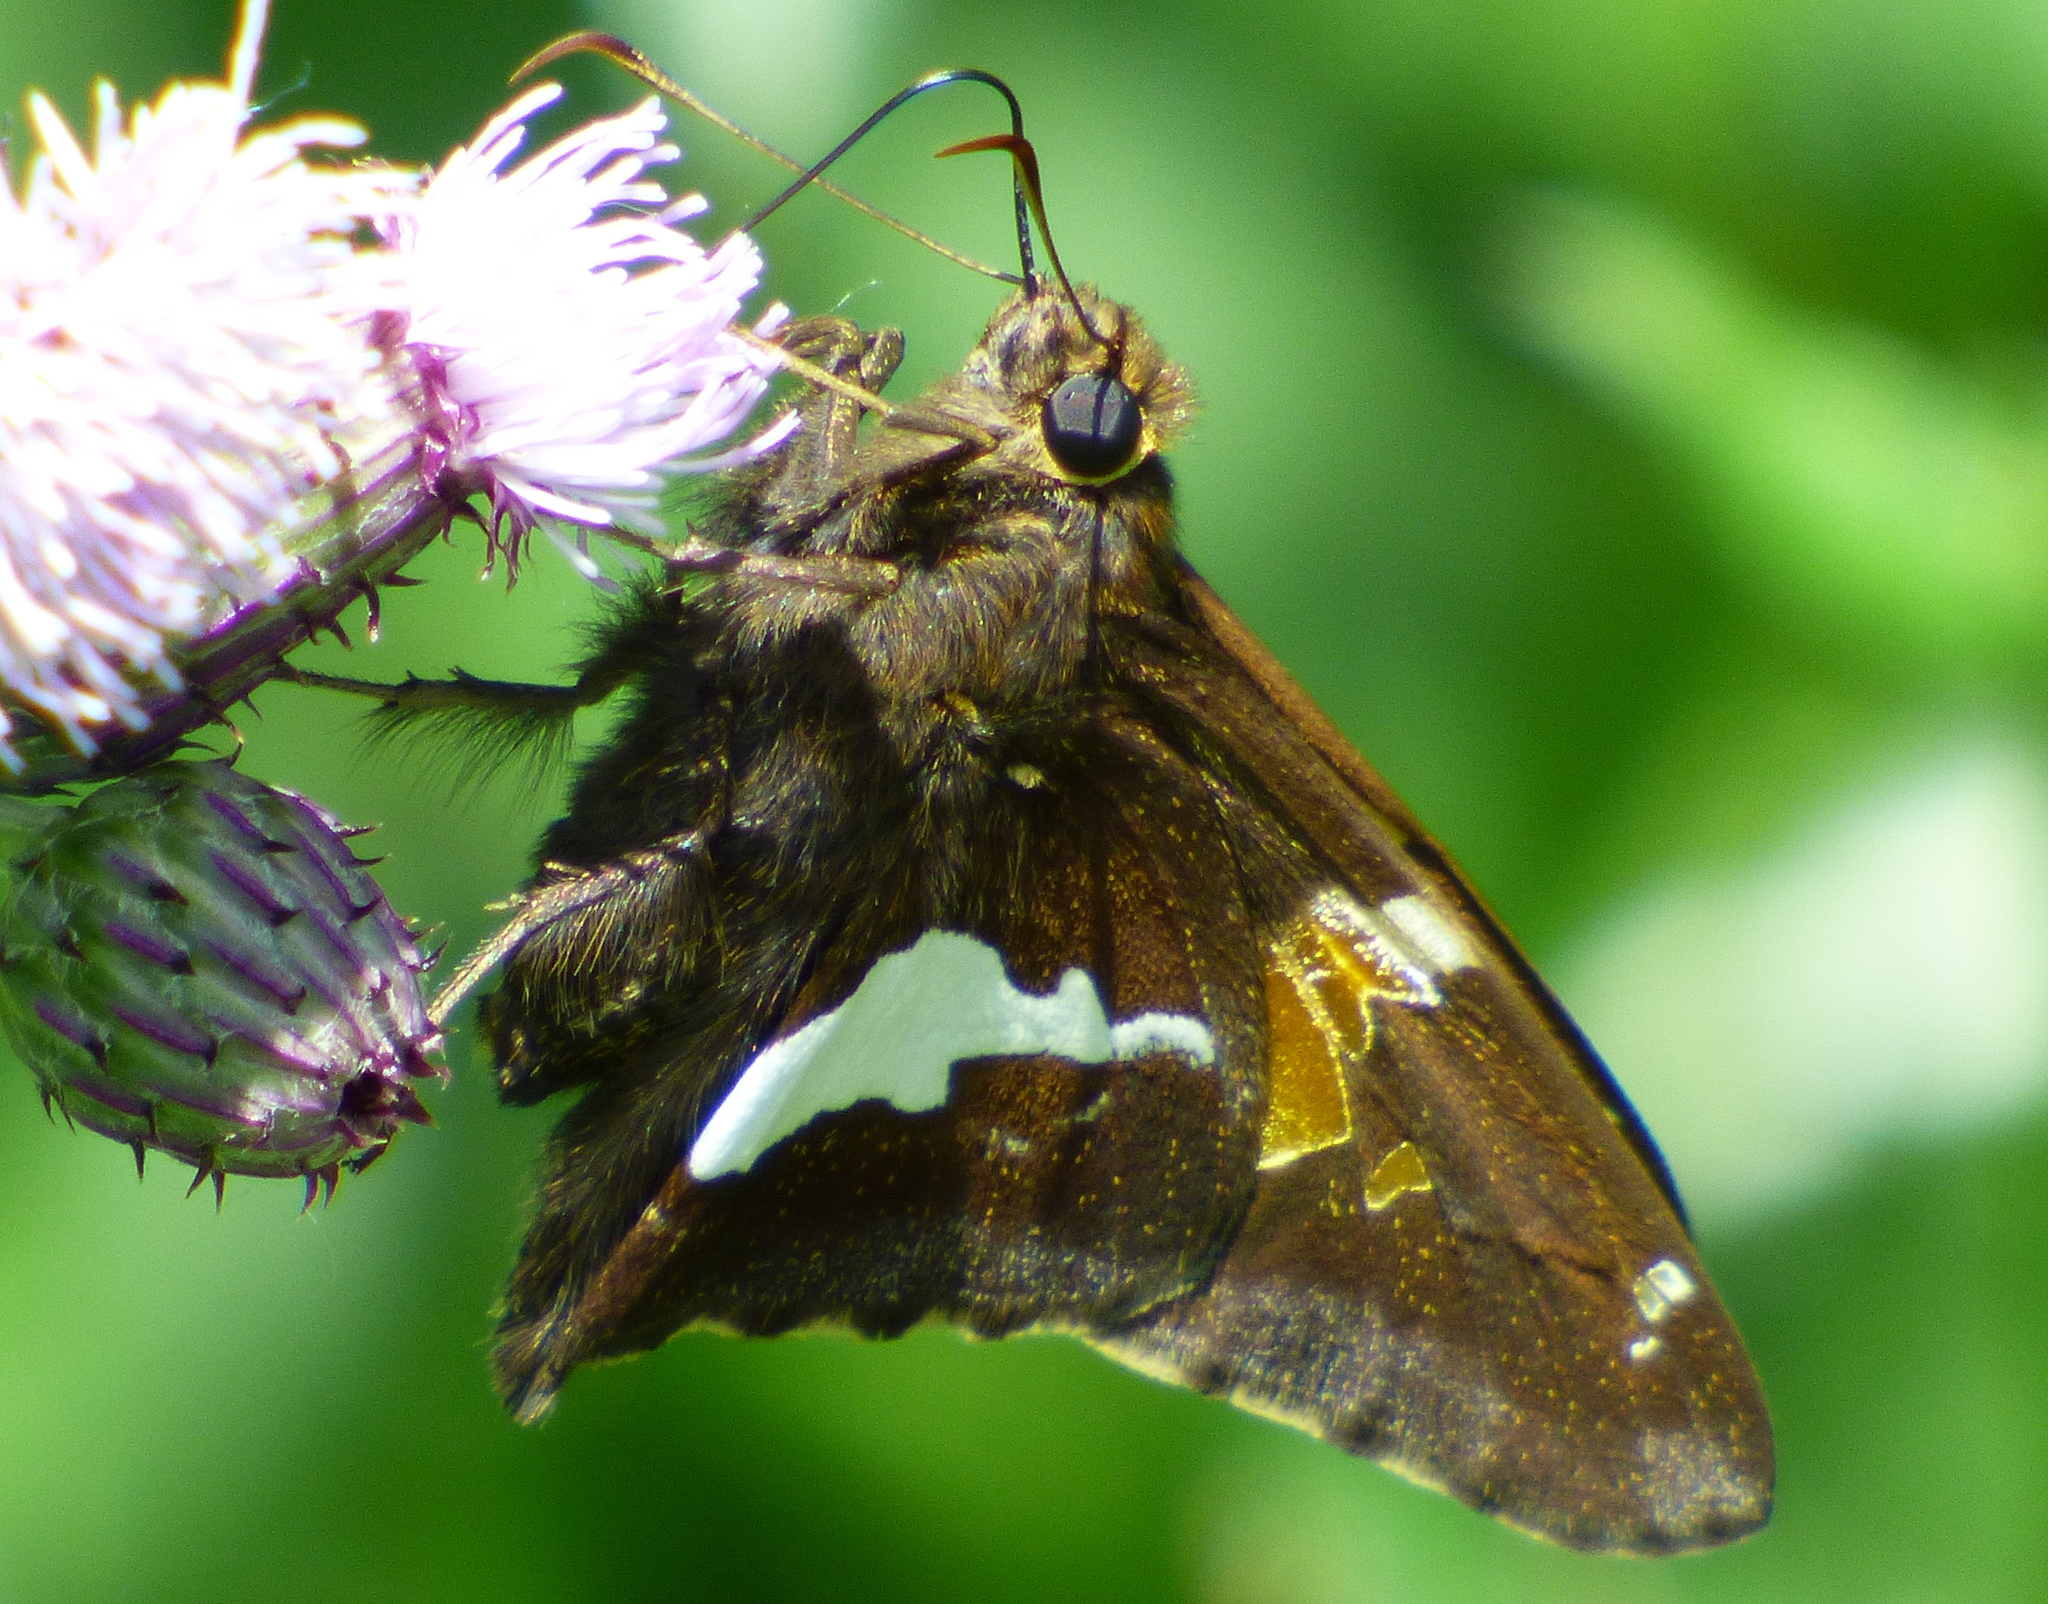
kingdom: Animalia
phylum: Arthropoda
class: Insecta
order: Lepidoptera
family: Hesperiidae
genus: Epargyreus
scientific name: Epargyreus clarus
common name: Silver-spotted skipper
